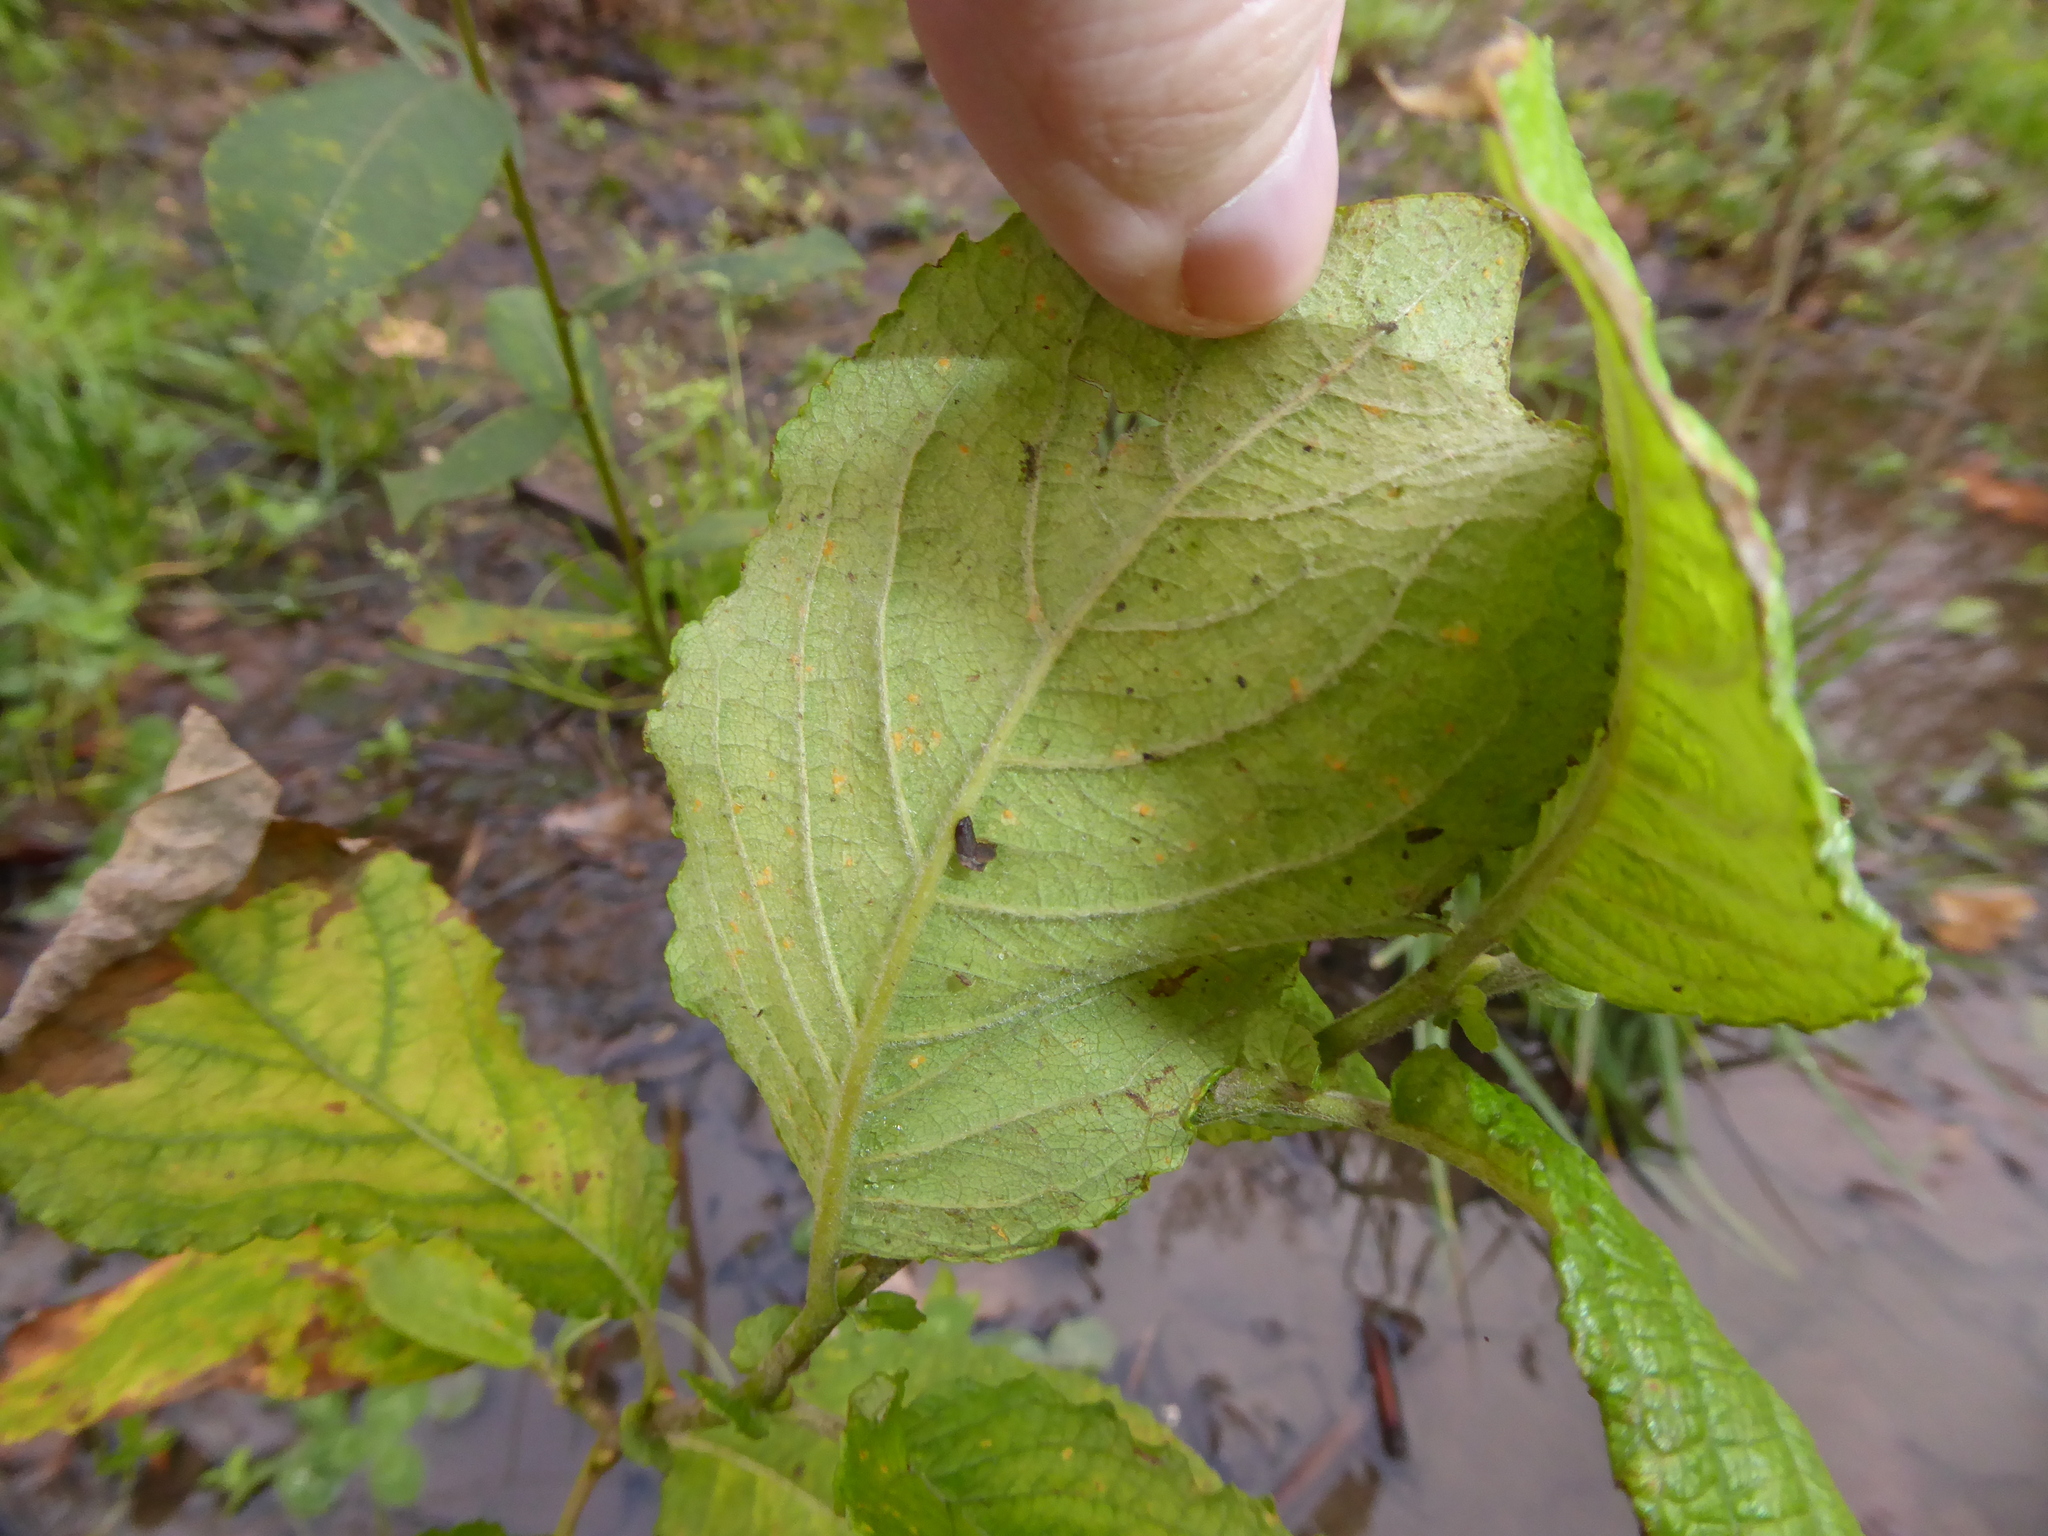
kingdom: Plantae
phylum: Tracheophyta
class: Magnoliopsida
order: Malpighiales
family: Salicaceae
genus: Salix
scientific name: Salix caprea
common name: Goat willow
